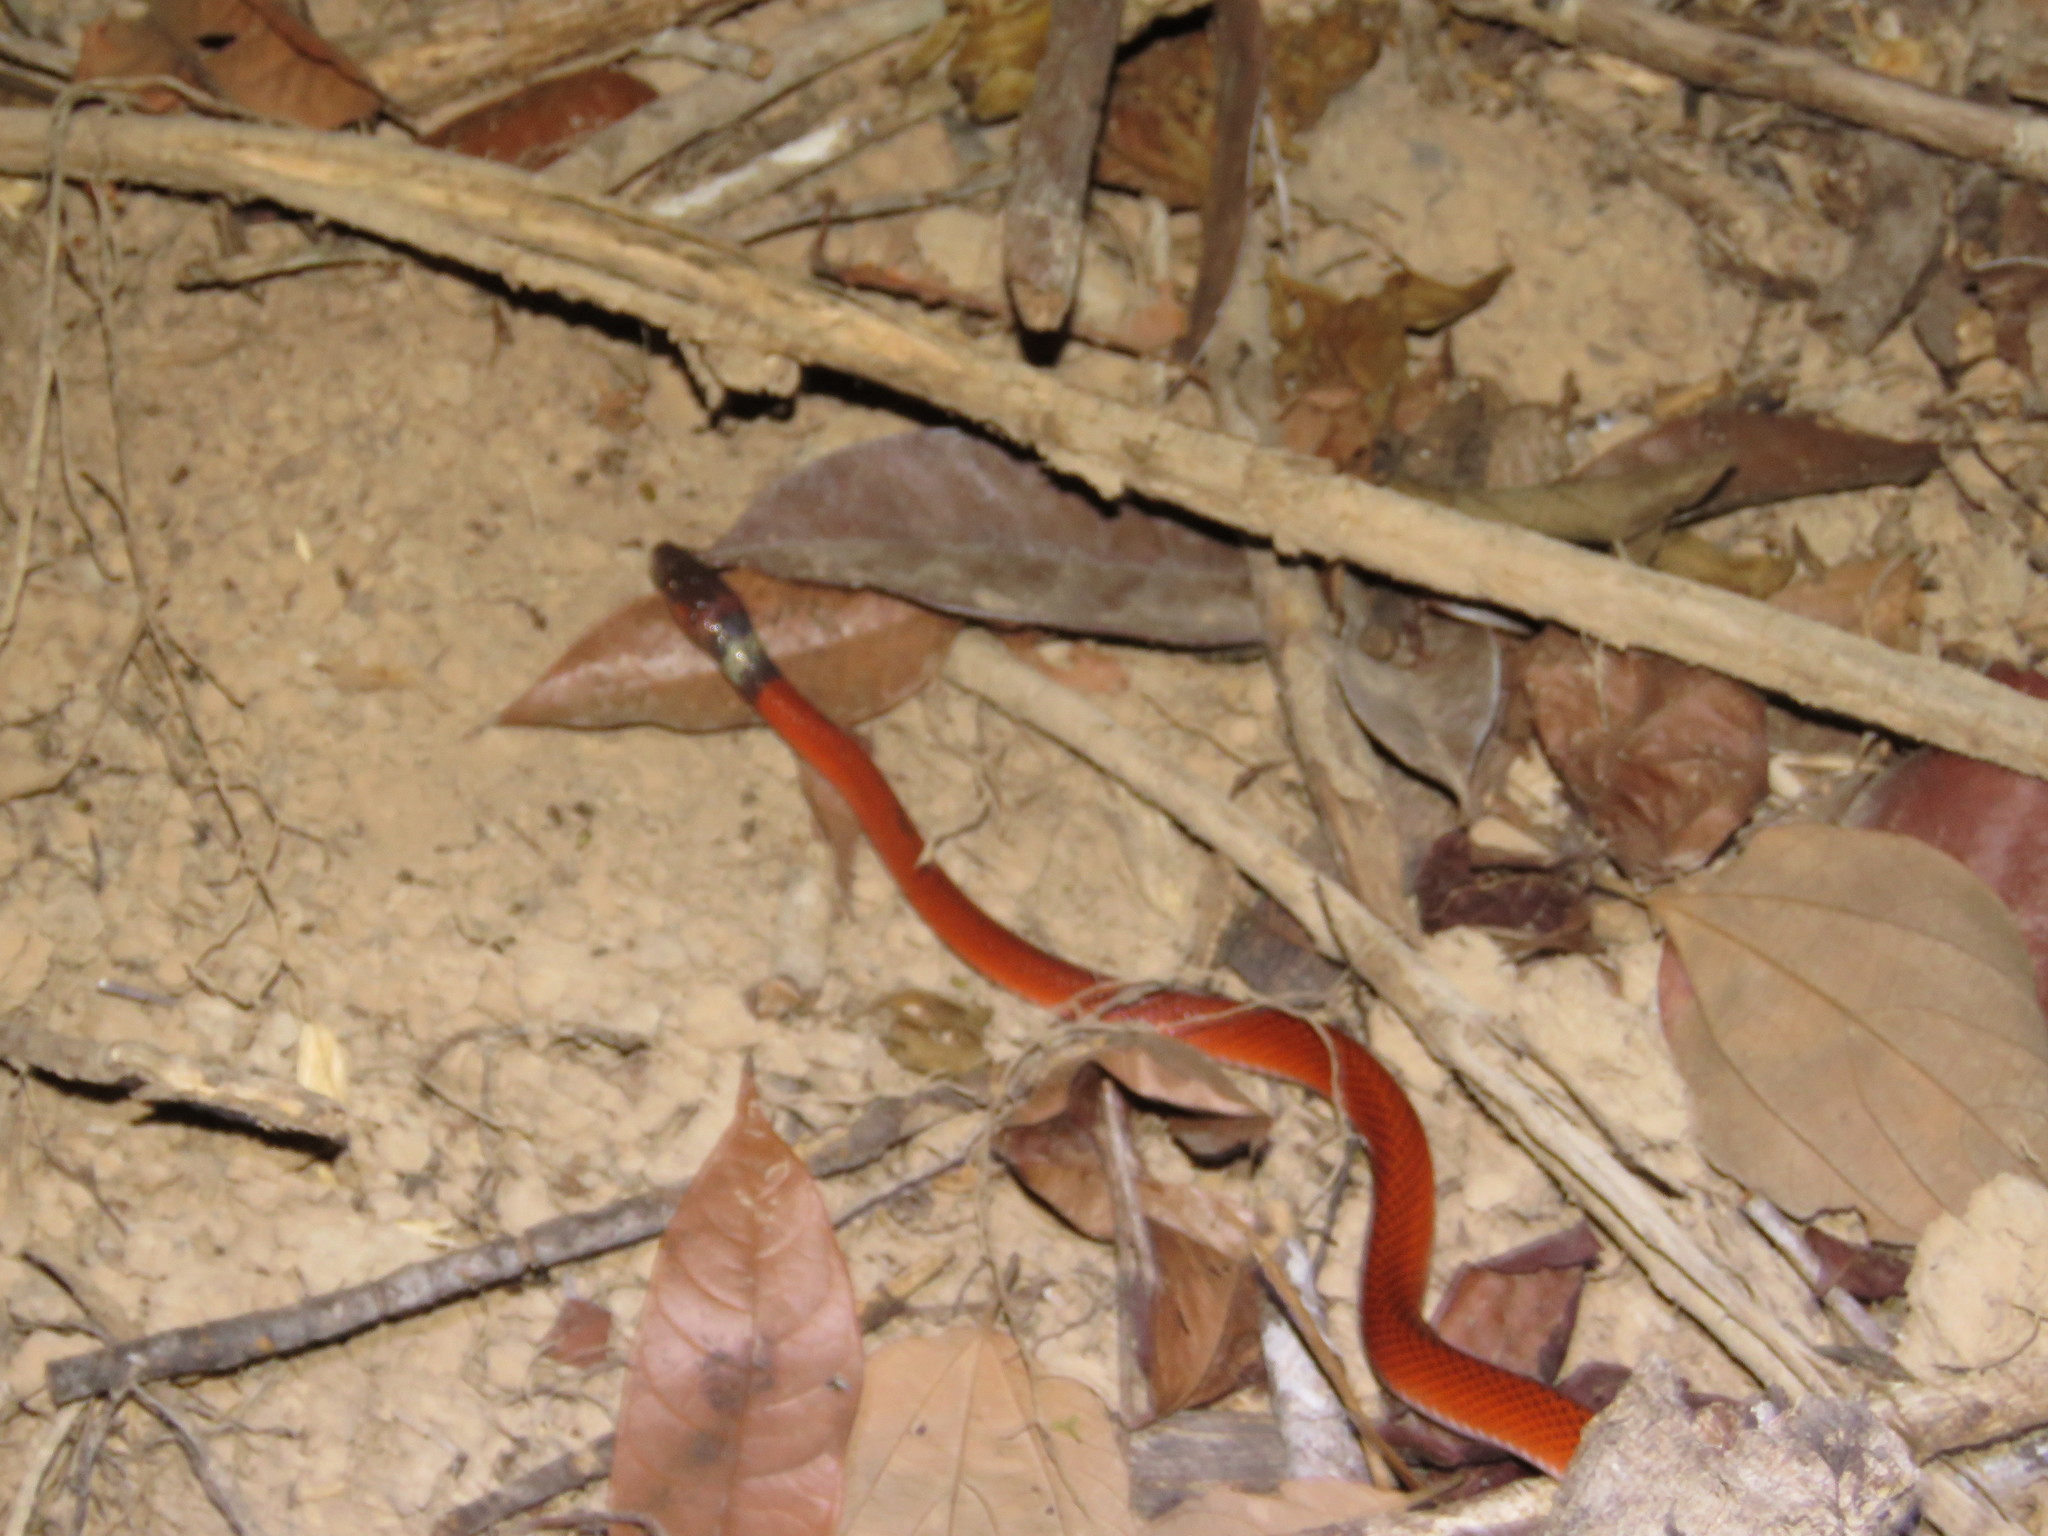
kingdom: Animalia
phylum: Chordata
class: Squamata
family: Colubridae
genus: Oxyrhopus
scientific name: Oxyrhopus melanogenys
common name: Tschudi's false coral snake
